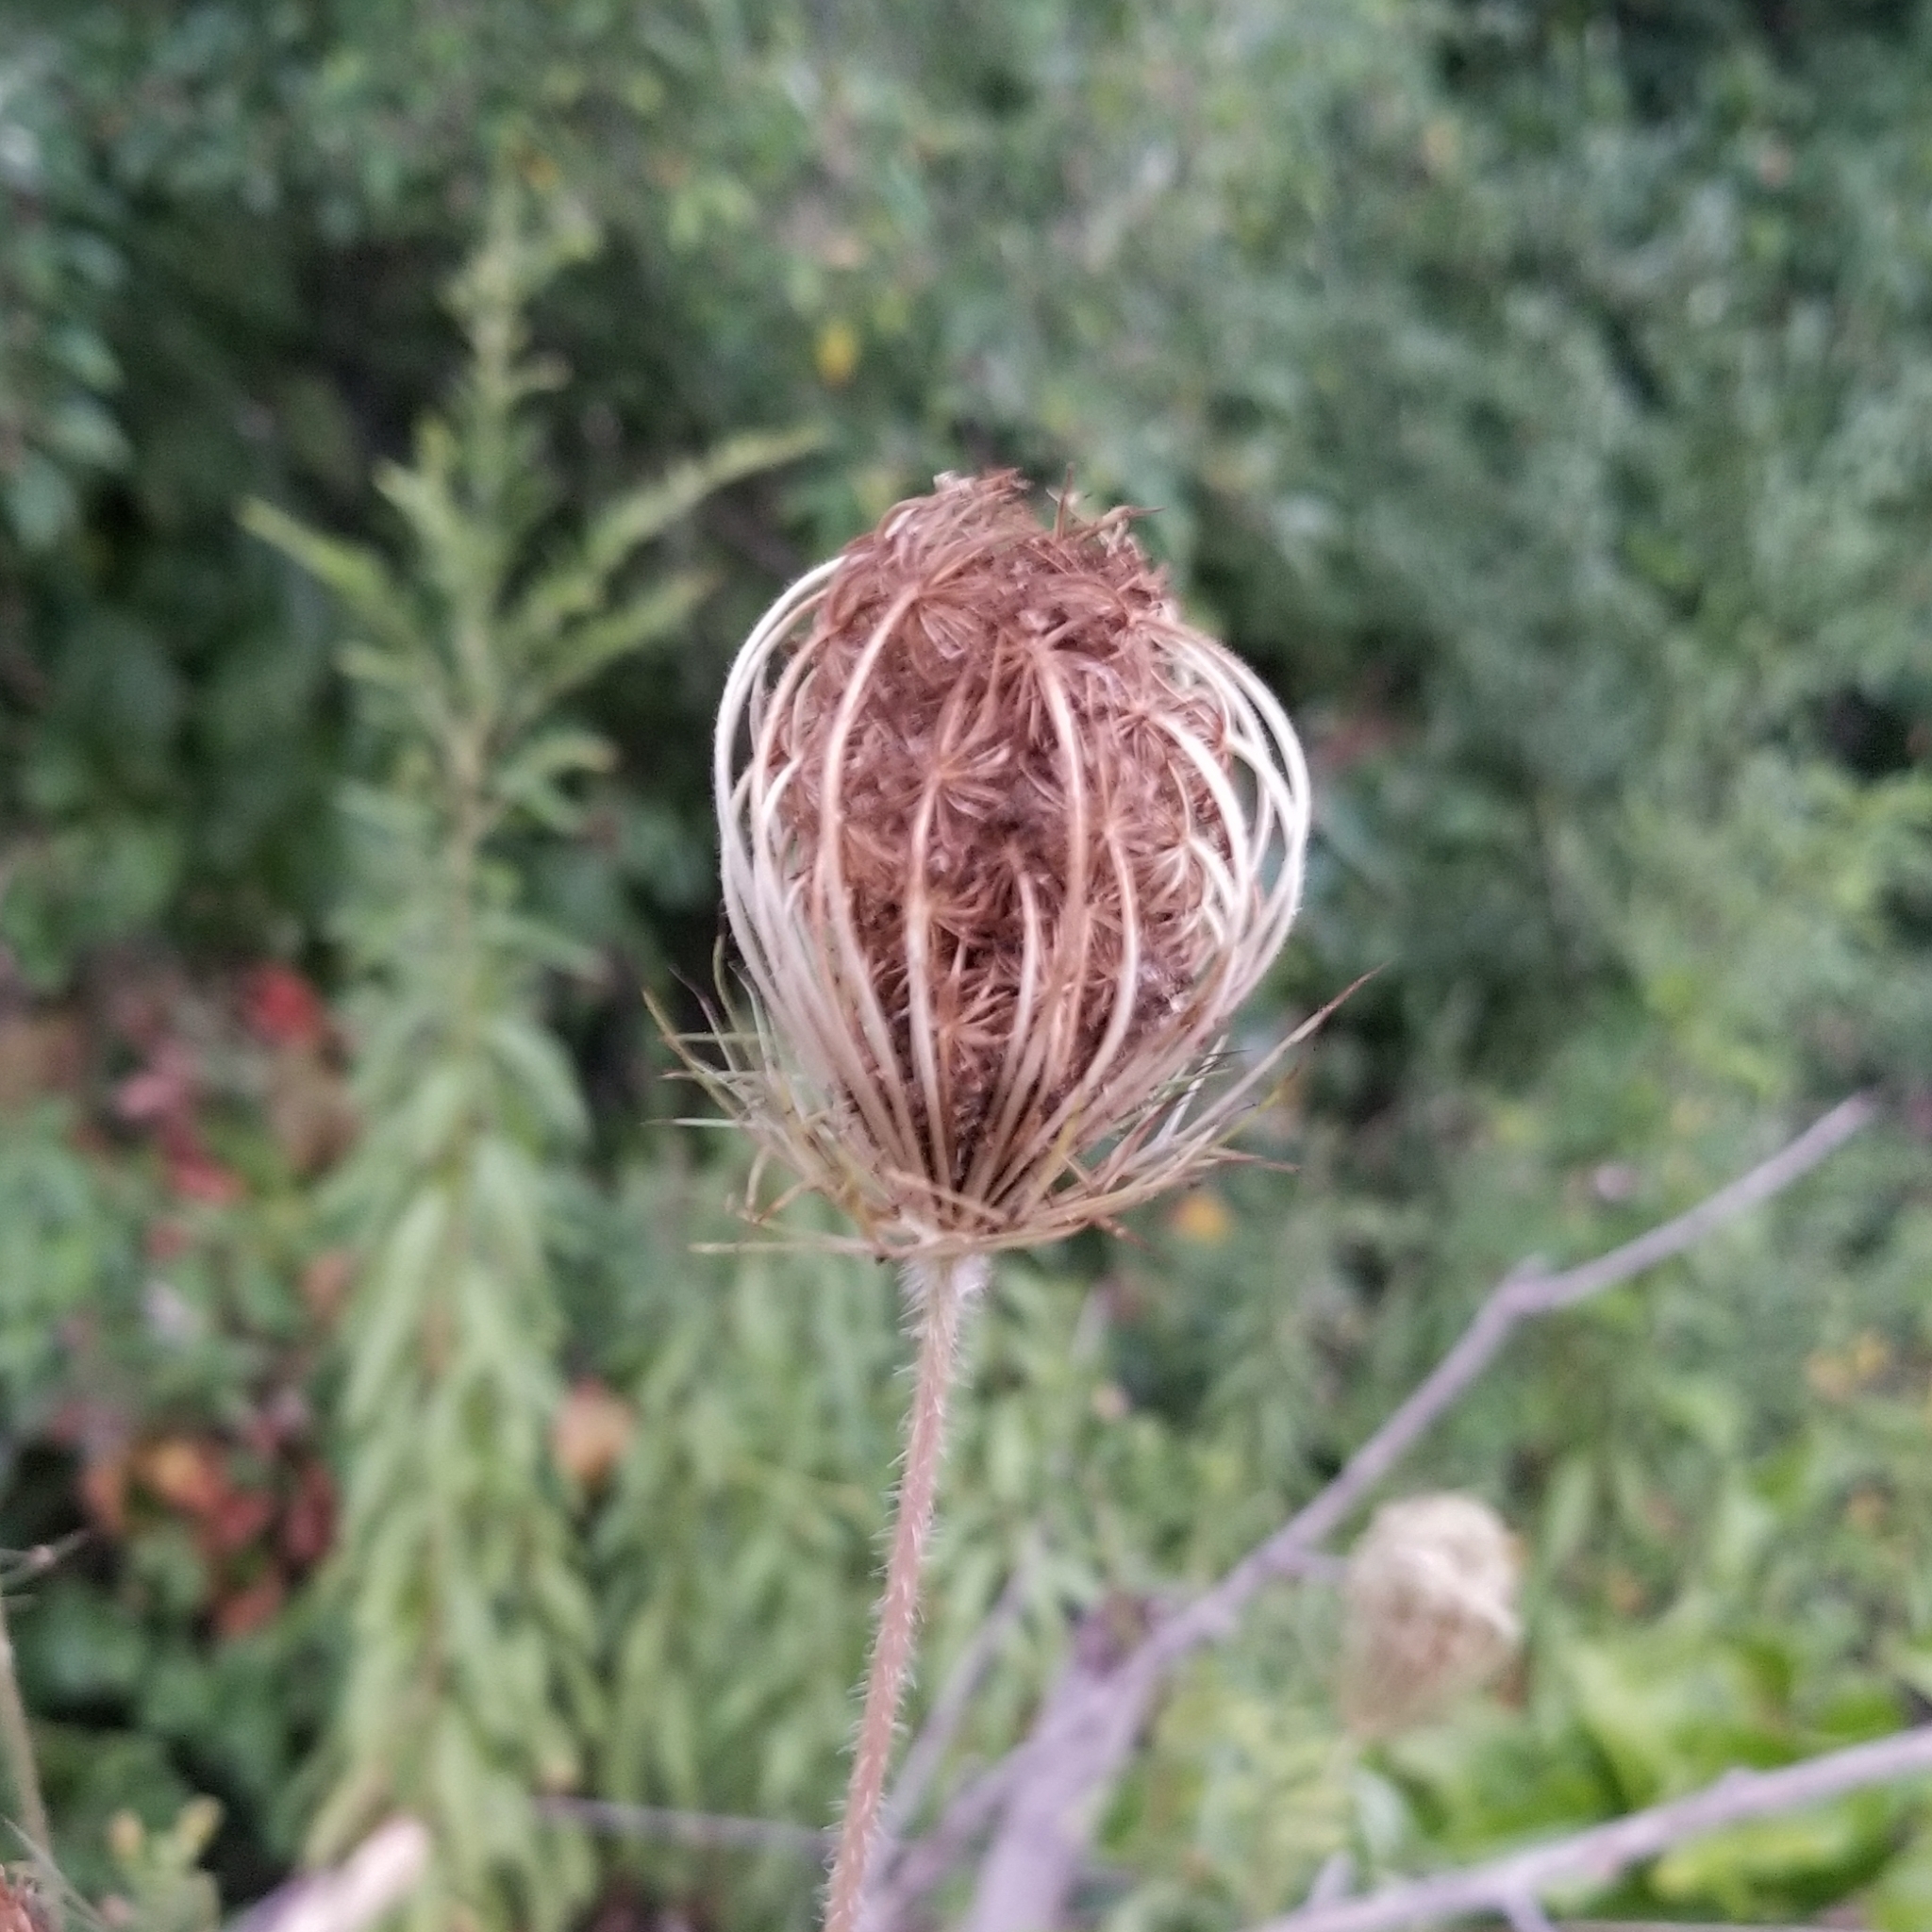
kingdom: Plantae
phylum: Tracheophyta
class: Magnoliopsida
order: Apiales
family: Apiaceae
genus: Daucus
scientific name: Daucus carota
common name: Wild carrot
